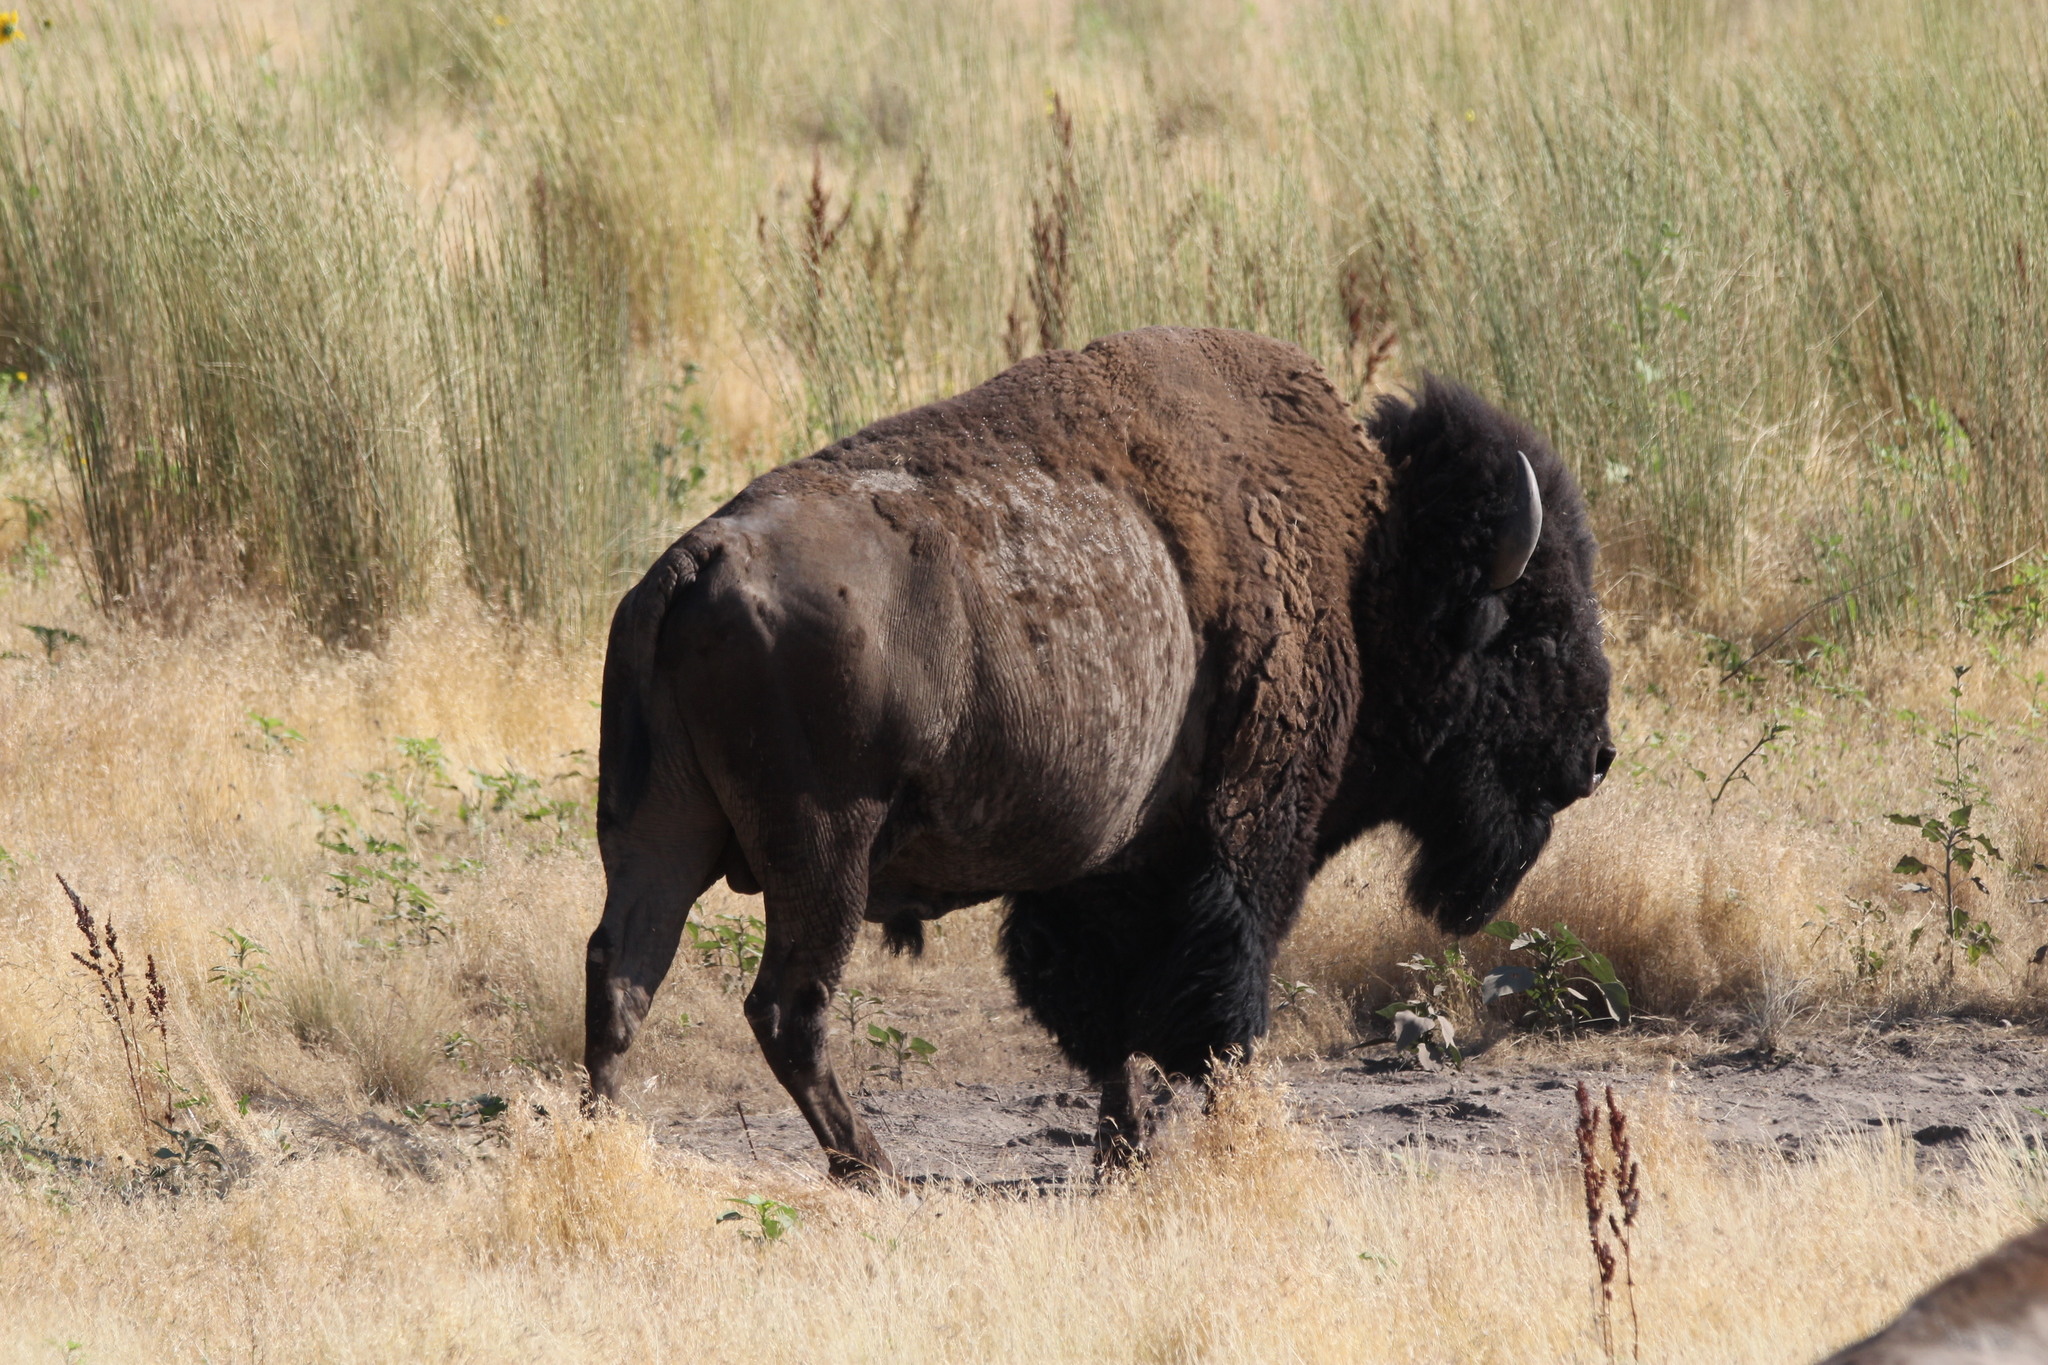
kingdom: Animalia
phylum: Chordata
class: Mammalia
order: Artiodactyla
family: Bovidae
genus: Bison
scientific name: Bison bison
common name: American bison
